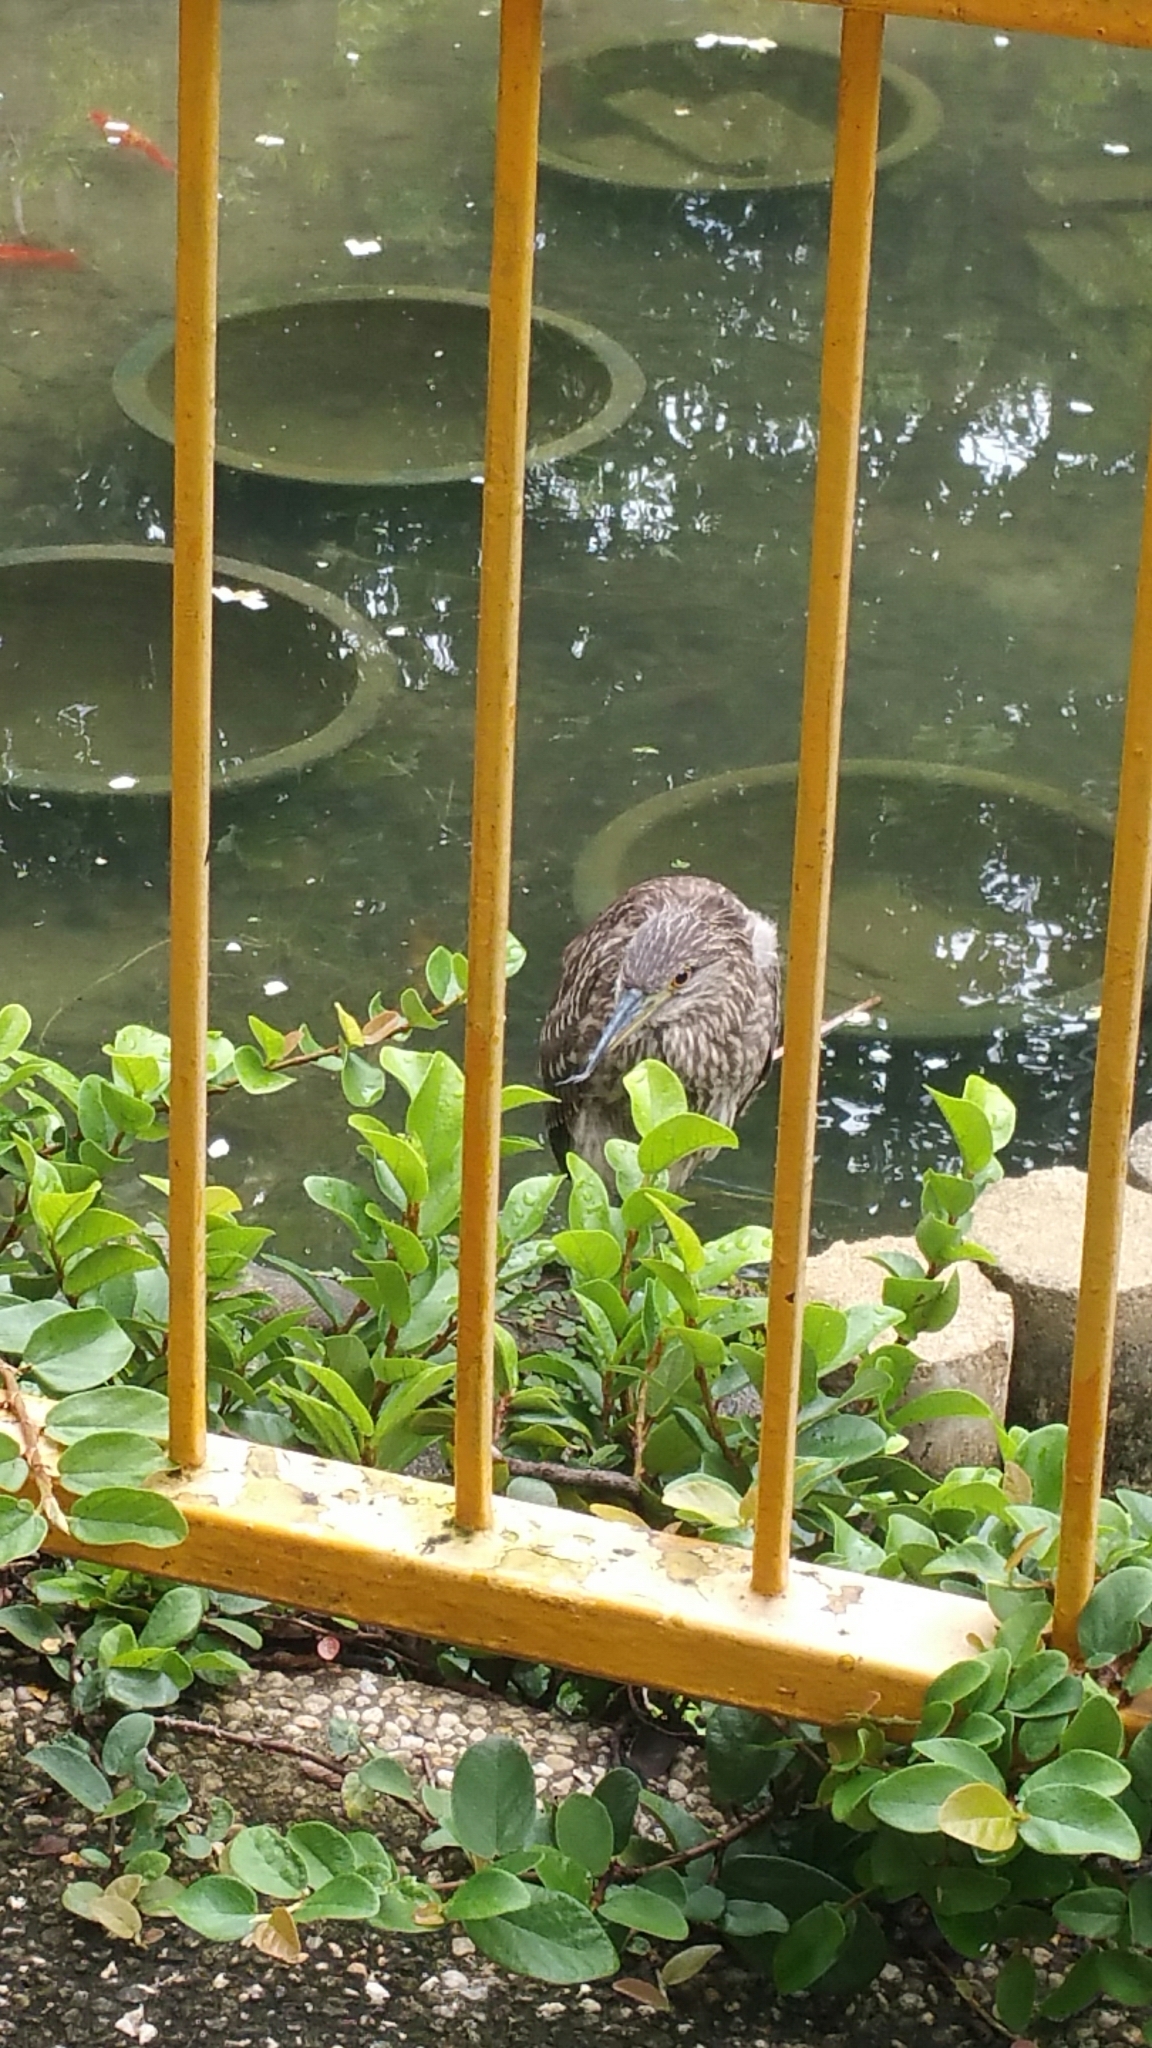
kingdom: Animalia
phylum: Chordata
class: Aves
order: Pelecaniformes
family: Ardeidae
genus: Nycticorax
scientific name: Nycticorax nycticorax
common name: Black-crowned night heron
